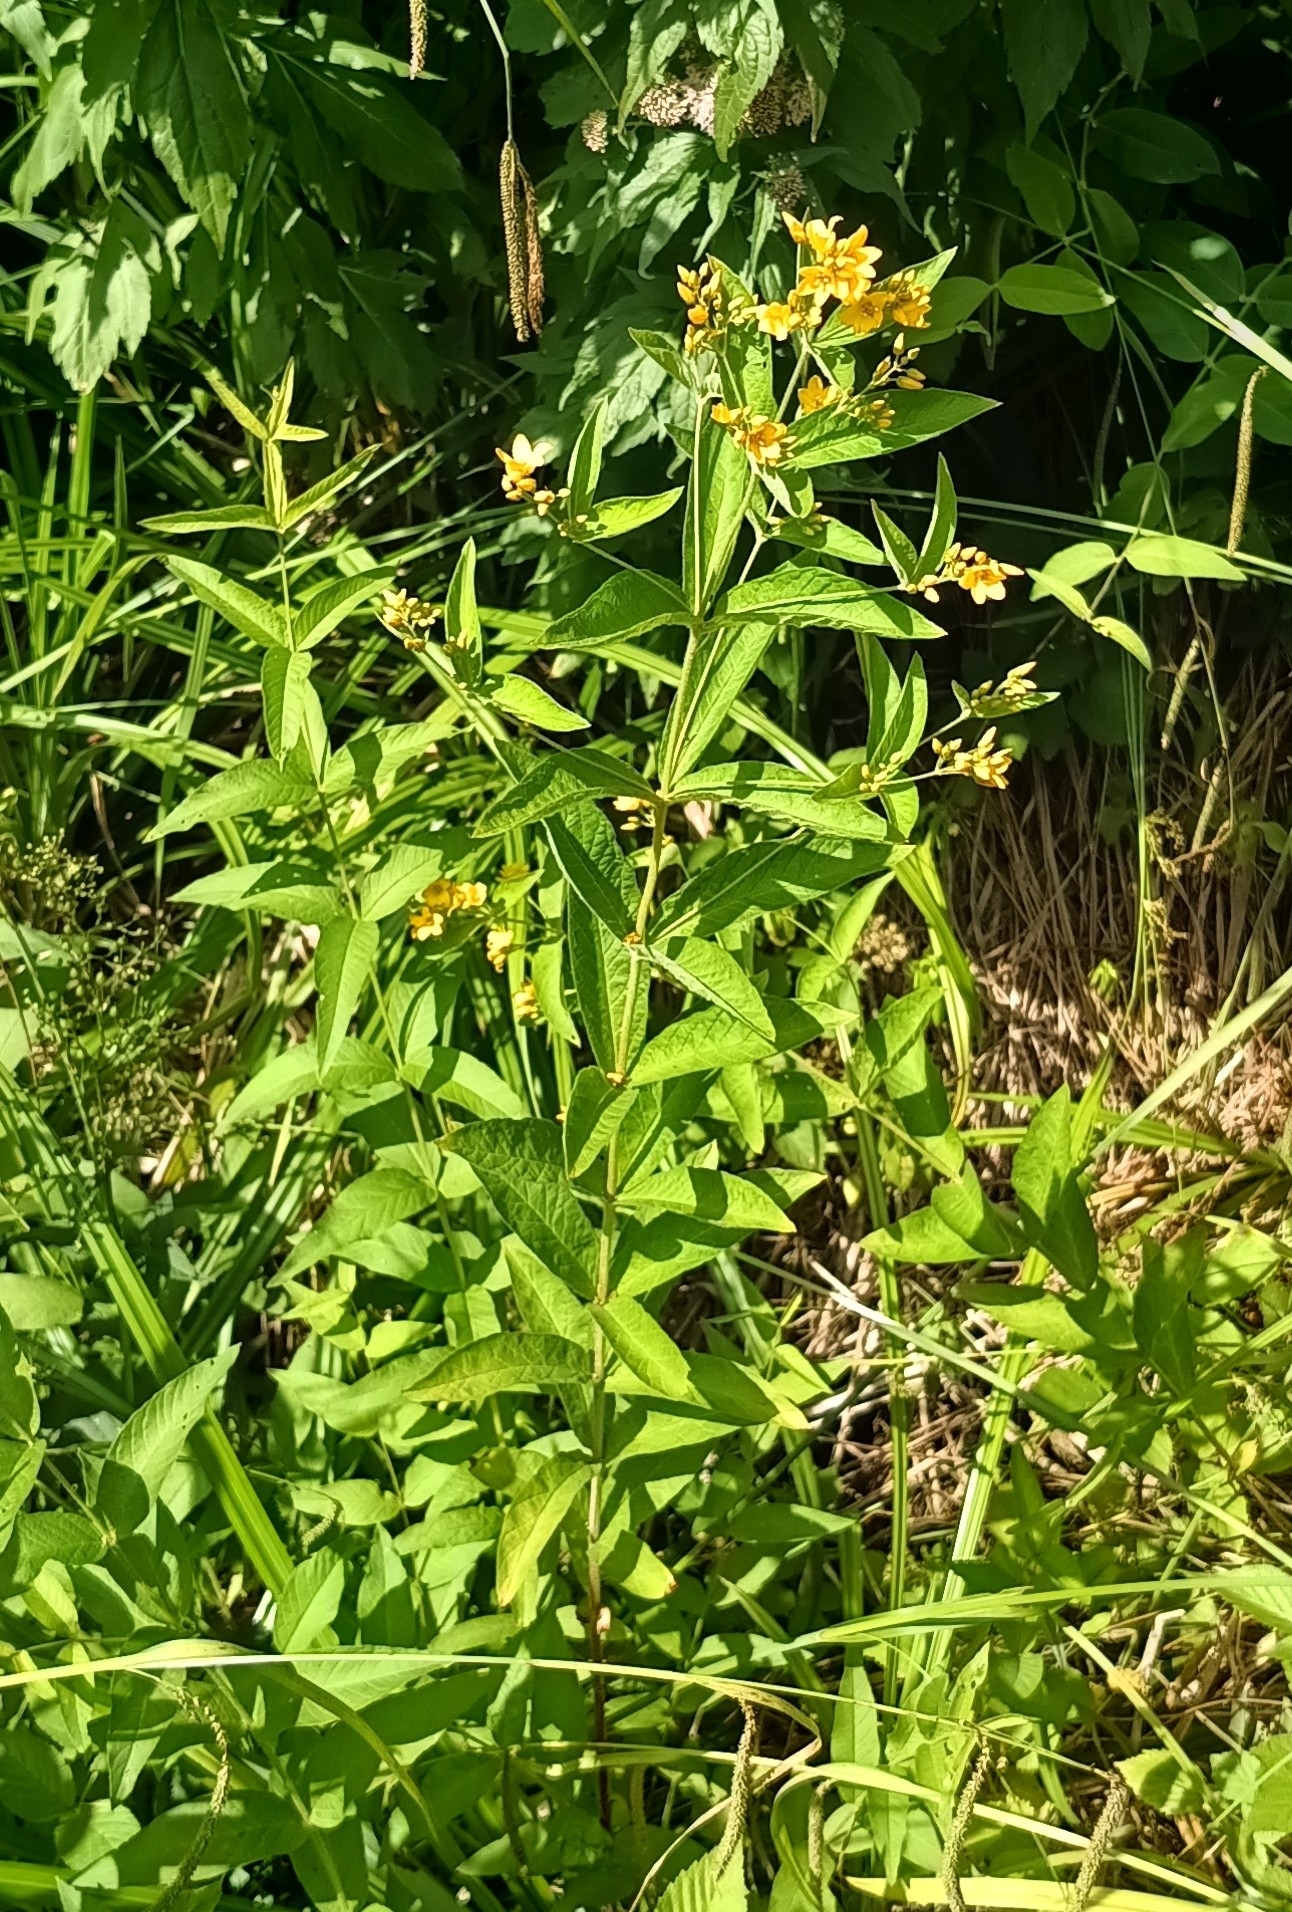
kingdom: Plantae
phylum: Tracheophyta
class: Magnoliopsida
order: Ericales
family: Primulaceae
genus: Lysimachia
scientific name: Lysimachia vulgaris
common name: Yellow loosestrife
